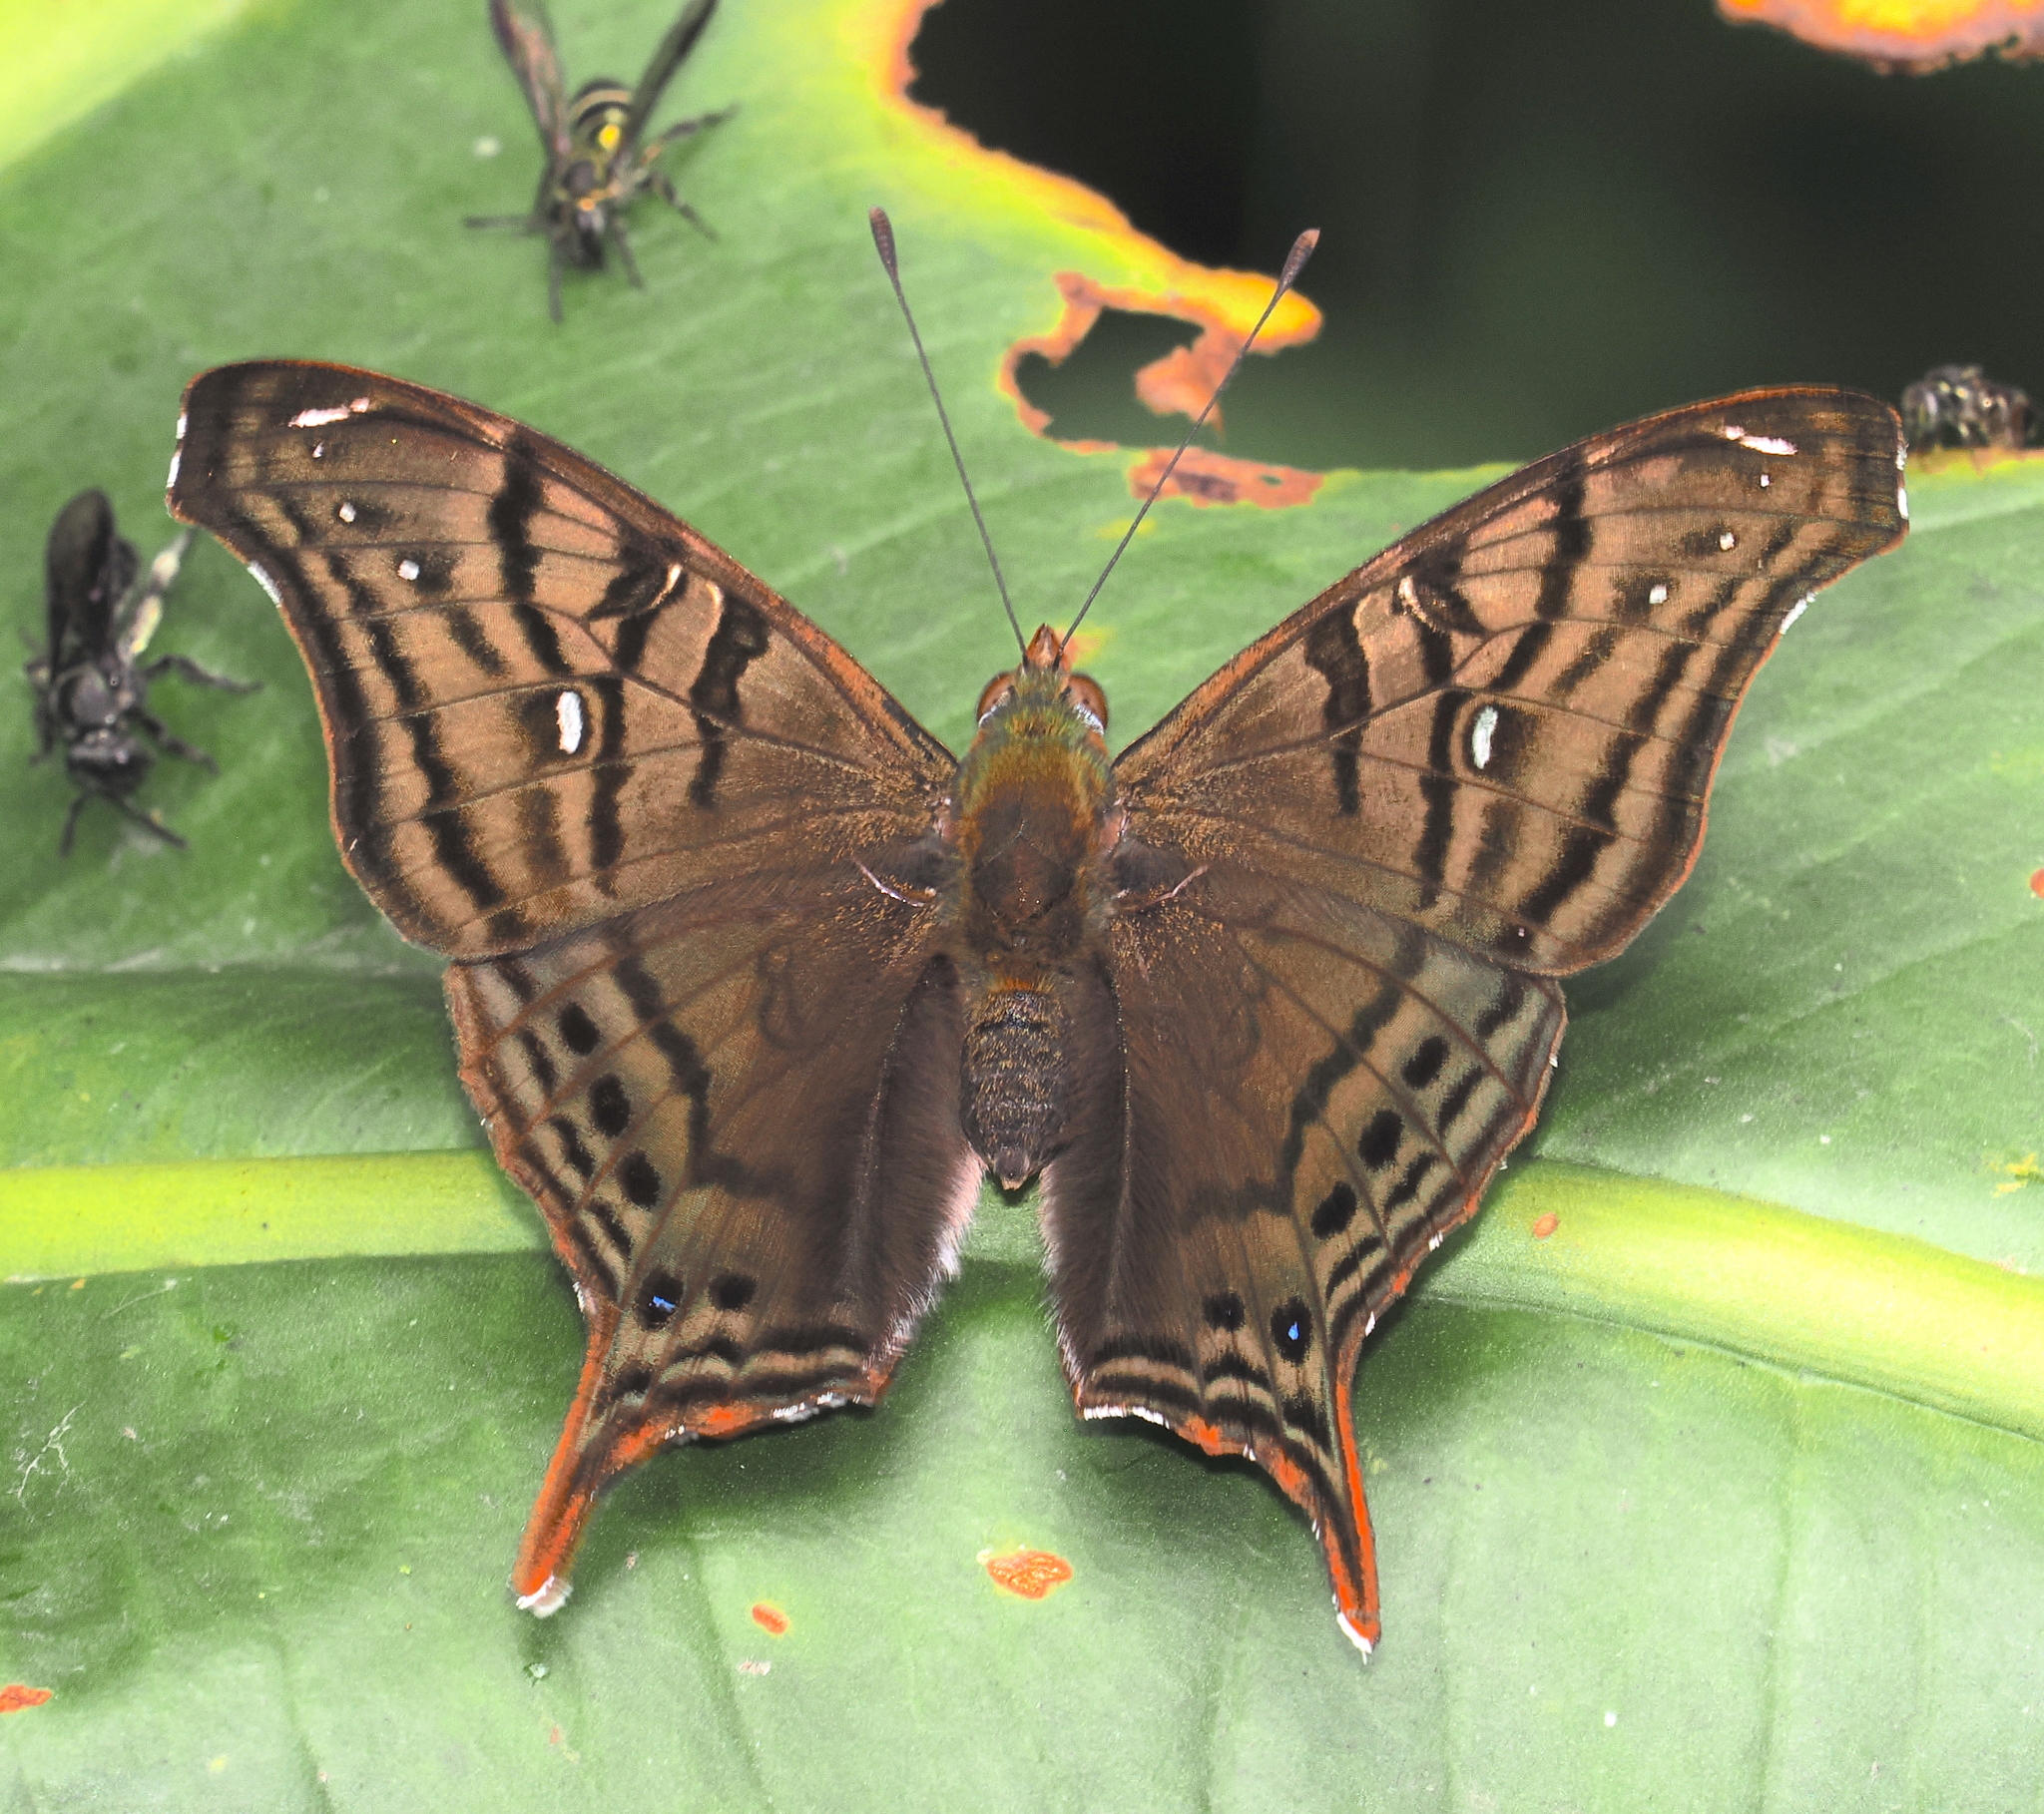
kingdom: Animalia
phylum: Arthropoda
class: Insecta
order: Lepidoptera
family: Nymphalidae
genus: Hypanartia
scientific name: Hypanartia dione
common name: Banded mapwing
